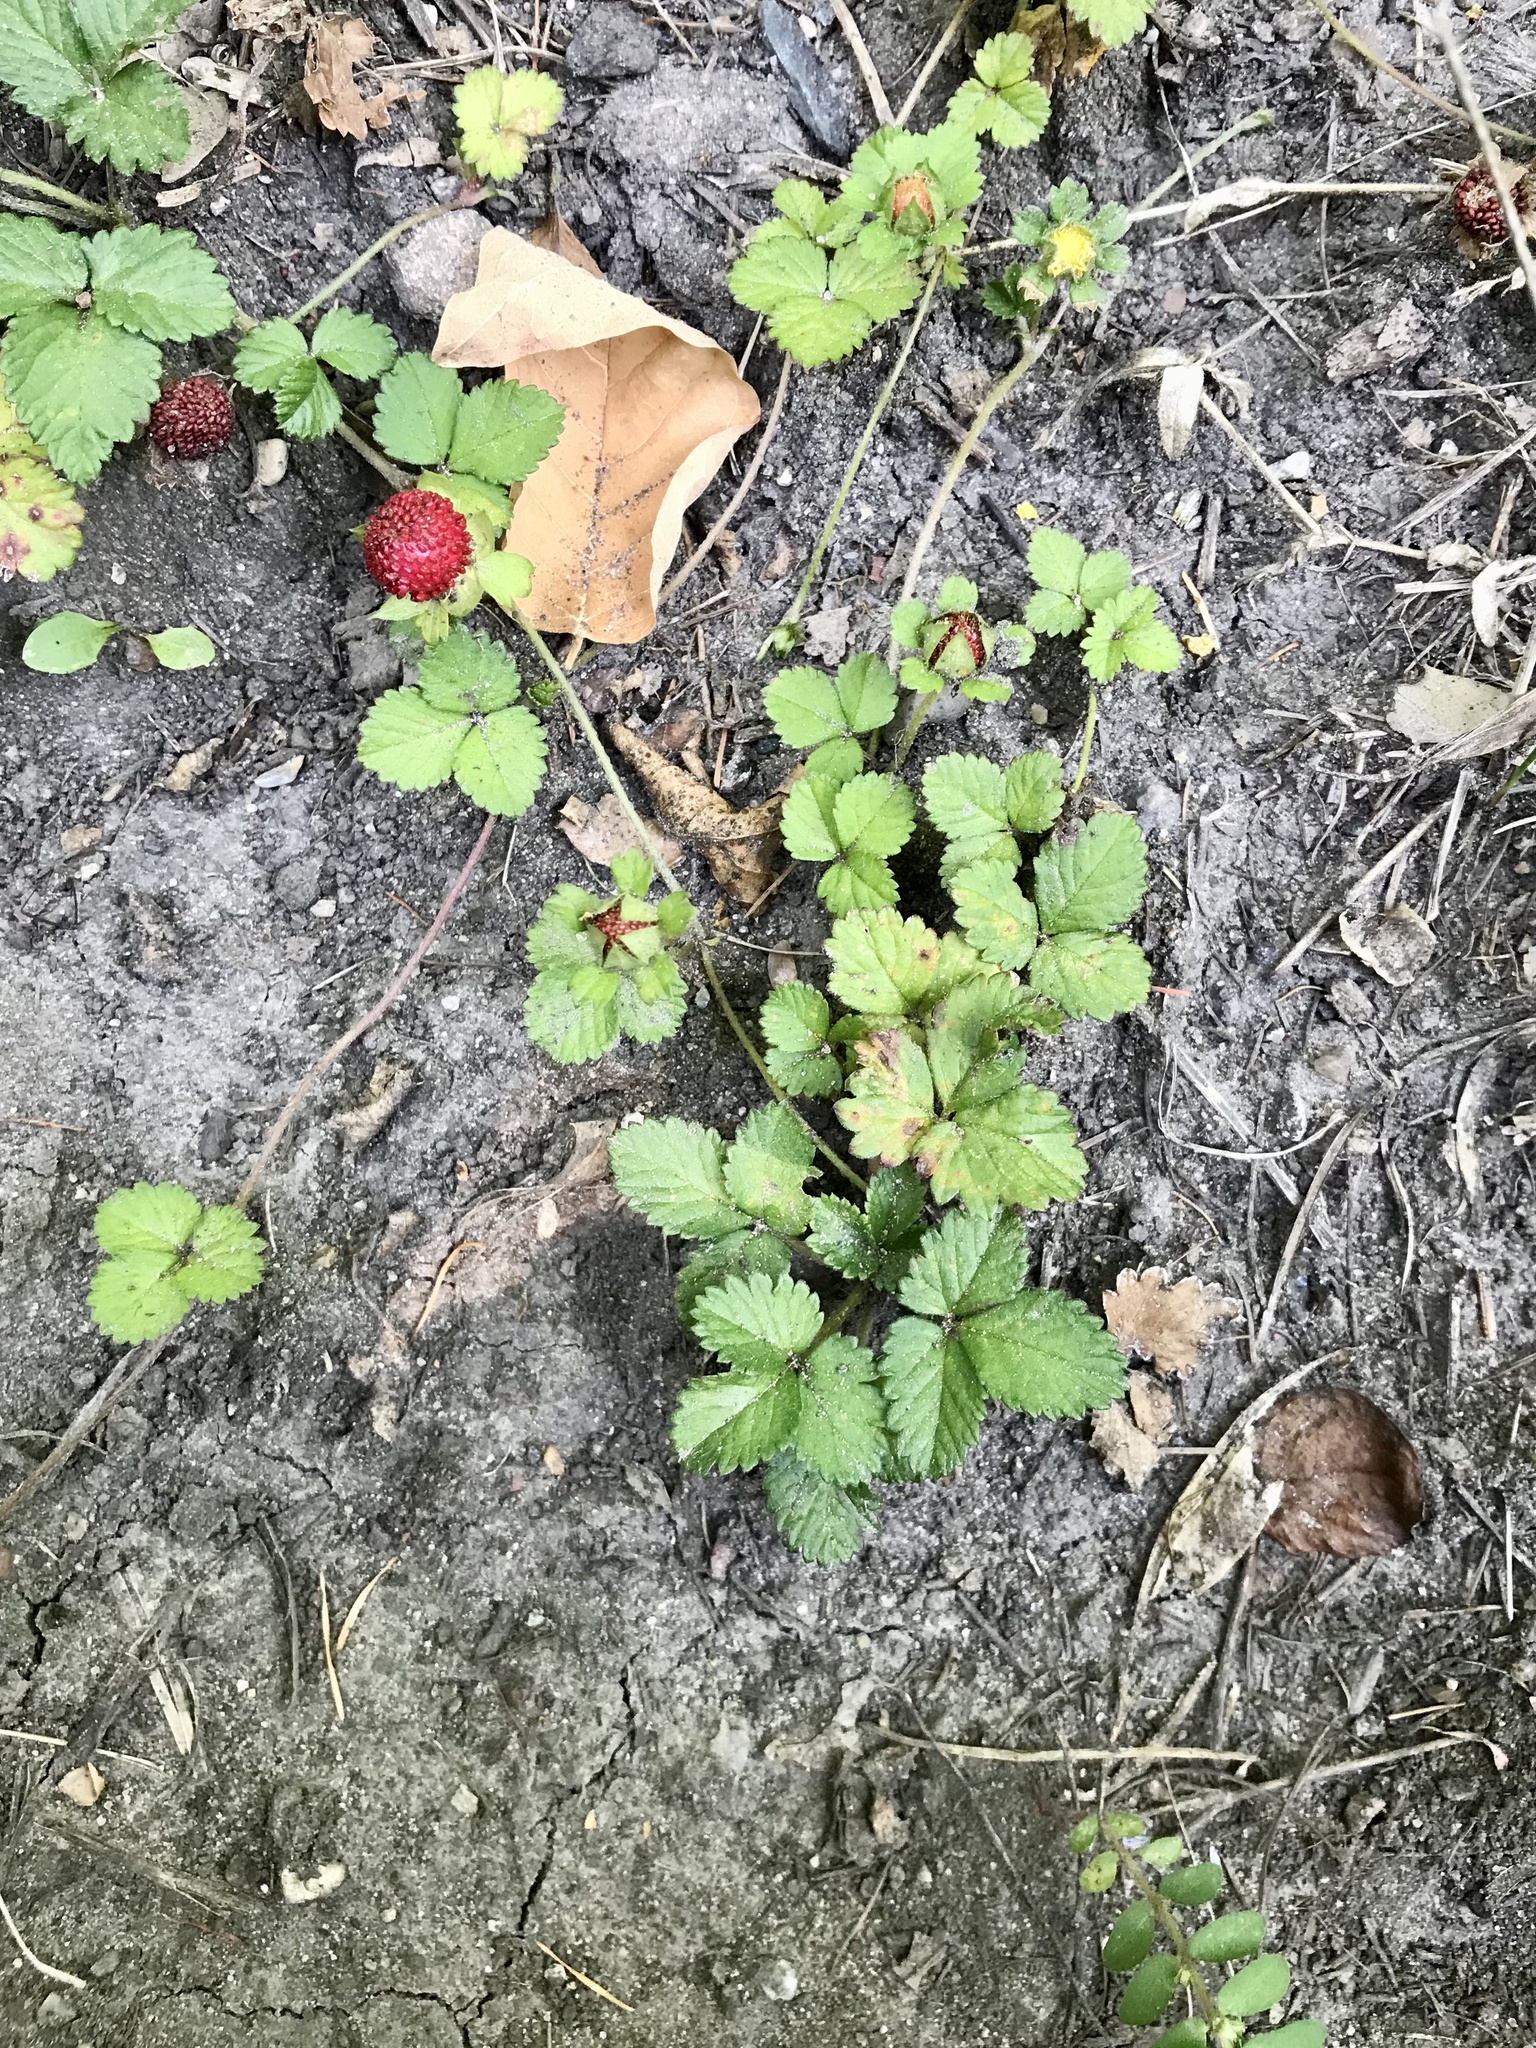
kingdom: Plantae
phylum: Tracheophyta
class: Magnoliopsida
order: Rosales
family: Rosaceae
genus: Potentilla
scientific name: Potentilla indica
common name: Yellow-flowered strawberry
